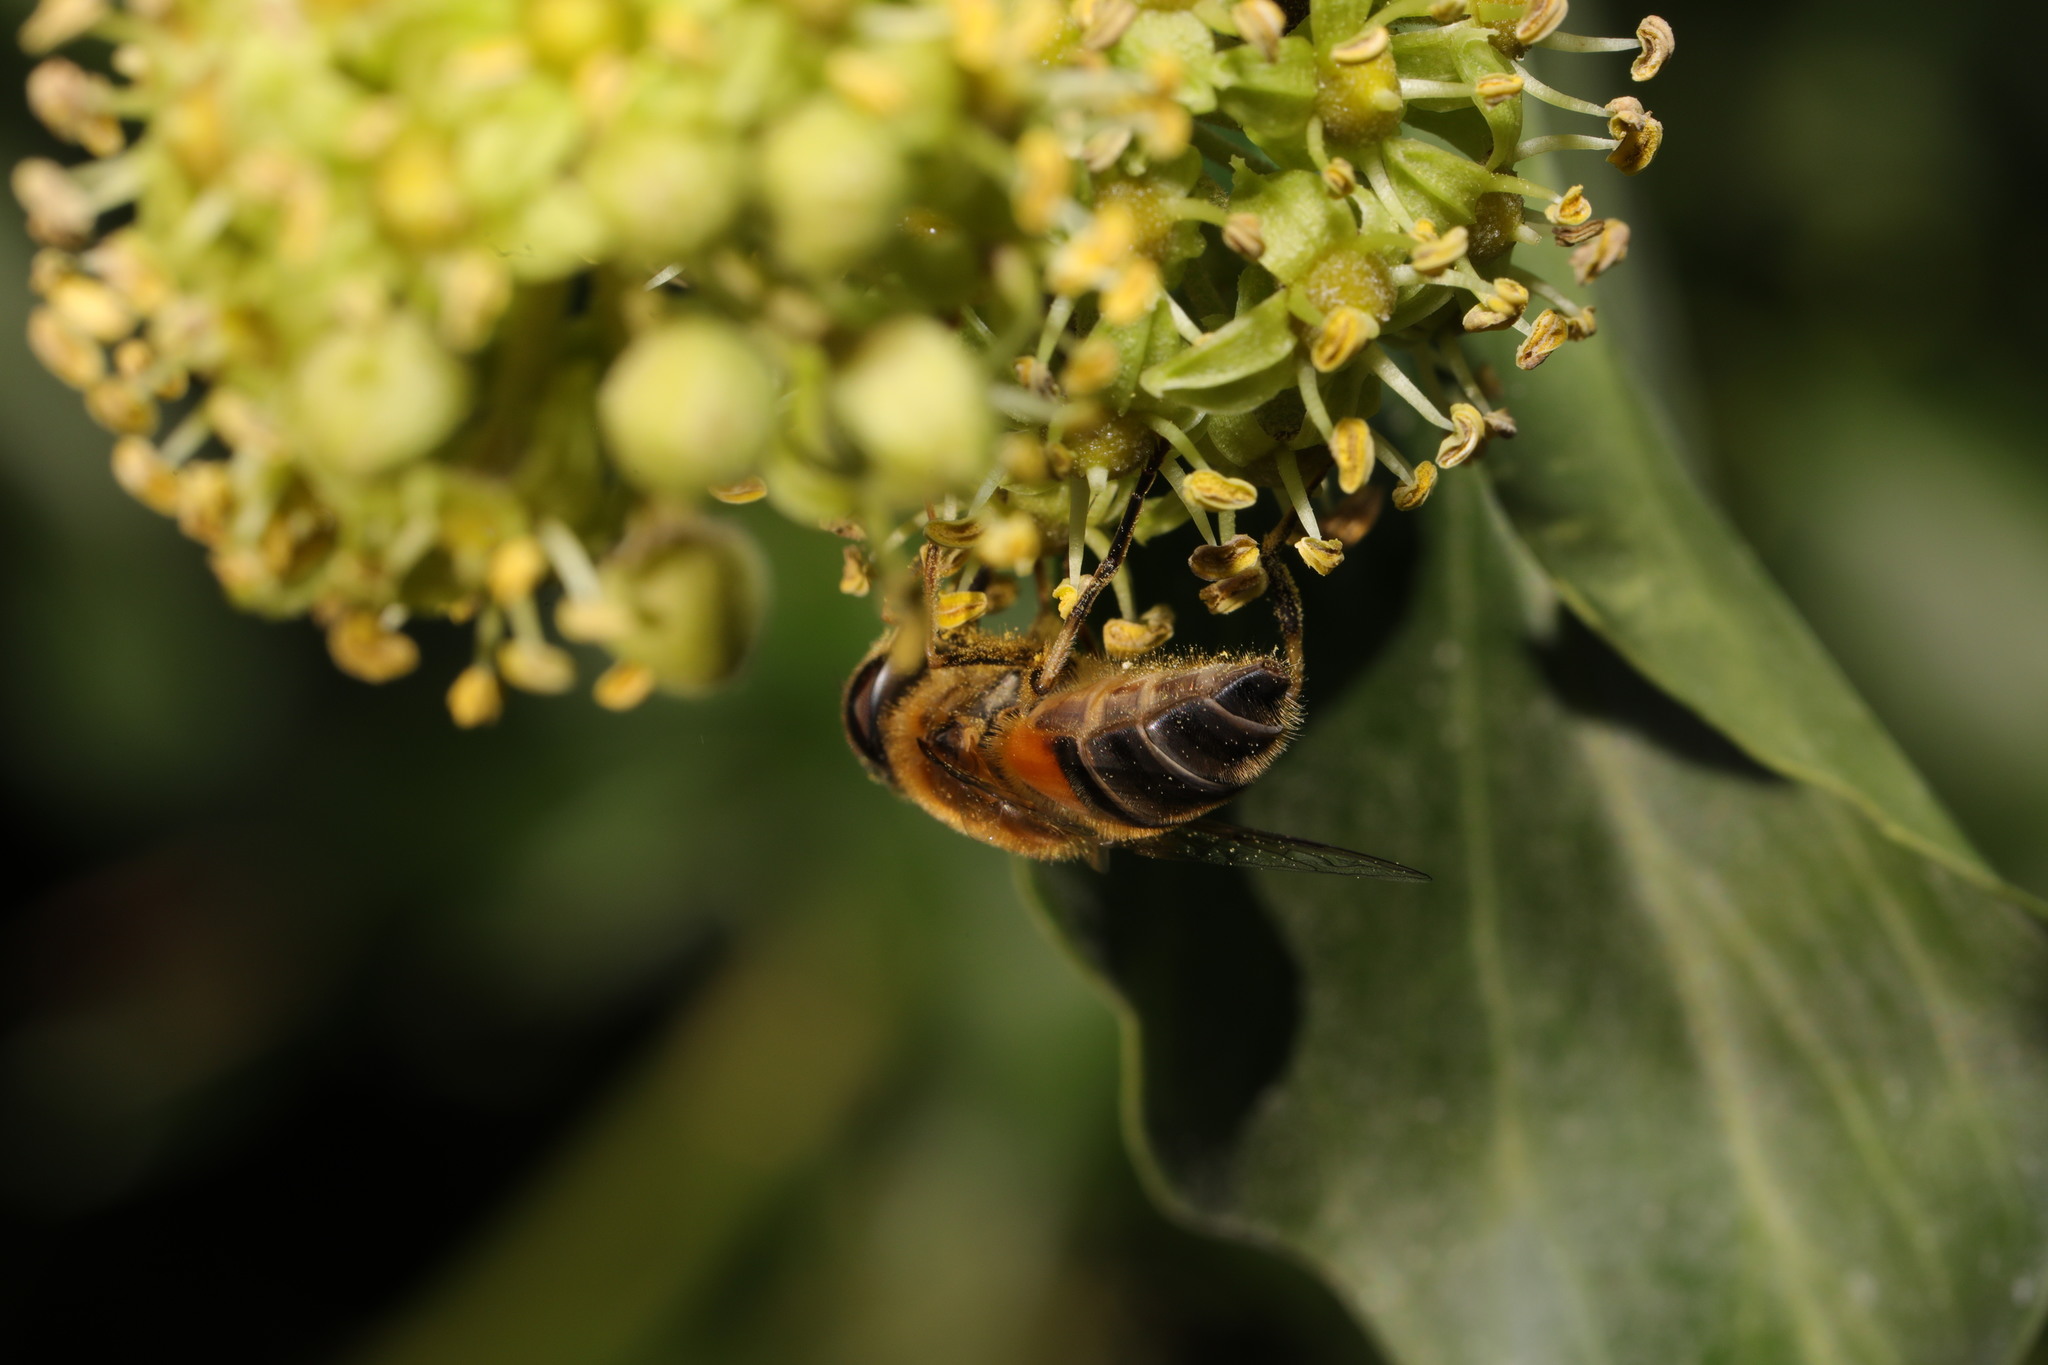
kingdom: Animalia
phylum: Arthropoda
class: Insecta
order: Diptera
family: Syrphidae
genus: Eoseristalis
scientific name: Eoseristalis
